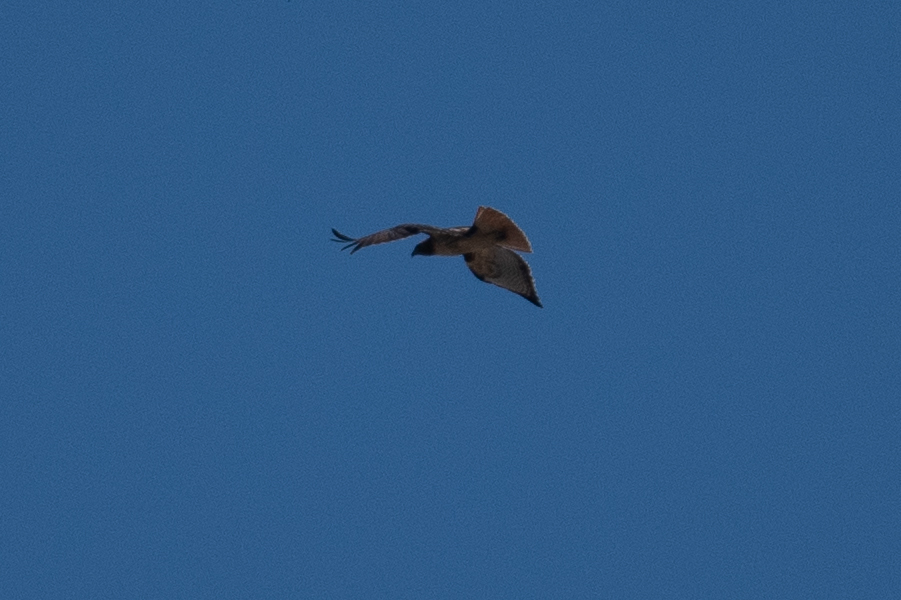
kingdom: Animalia
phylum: Chordata
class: Aves
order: Accipitriformes
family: Accipitridae
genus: Buteo
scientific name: Buteo jamaicensis
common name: Red-tailed hawk
